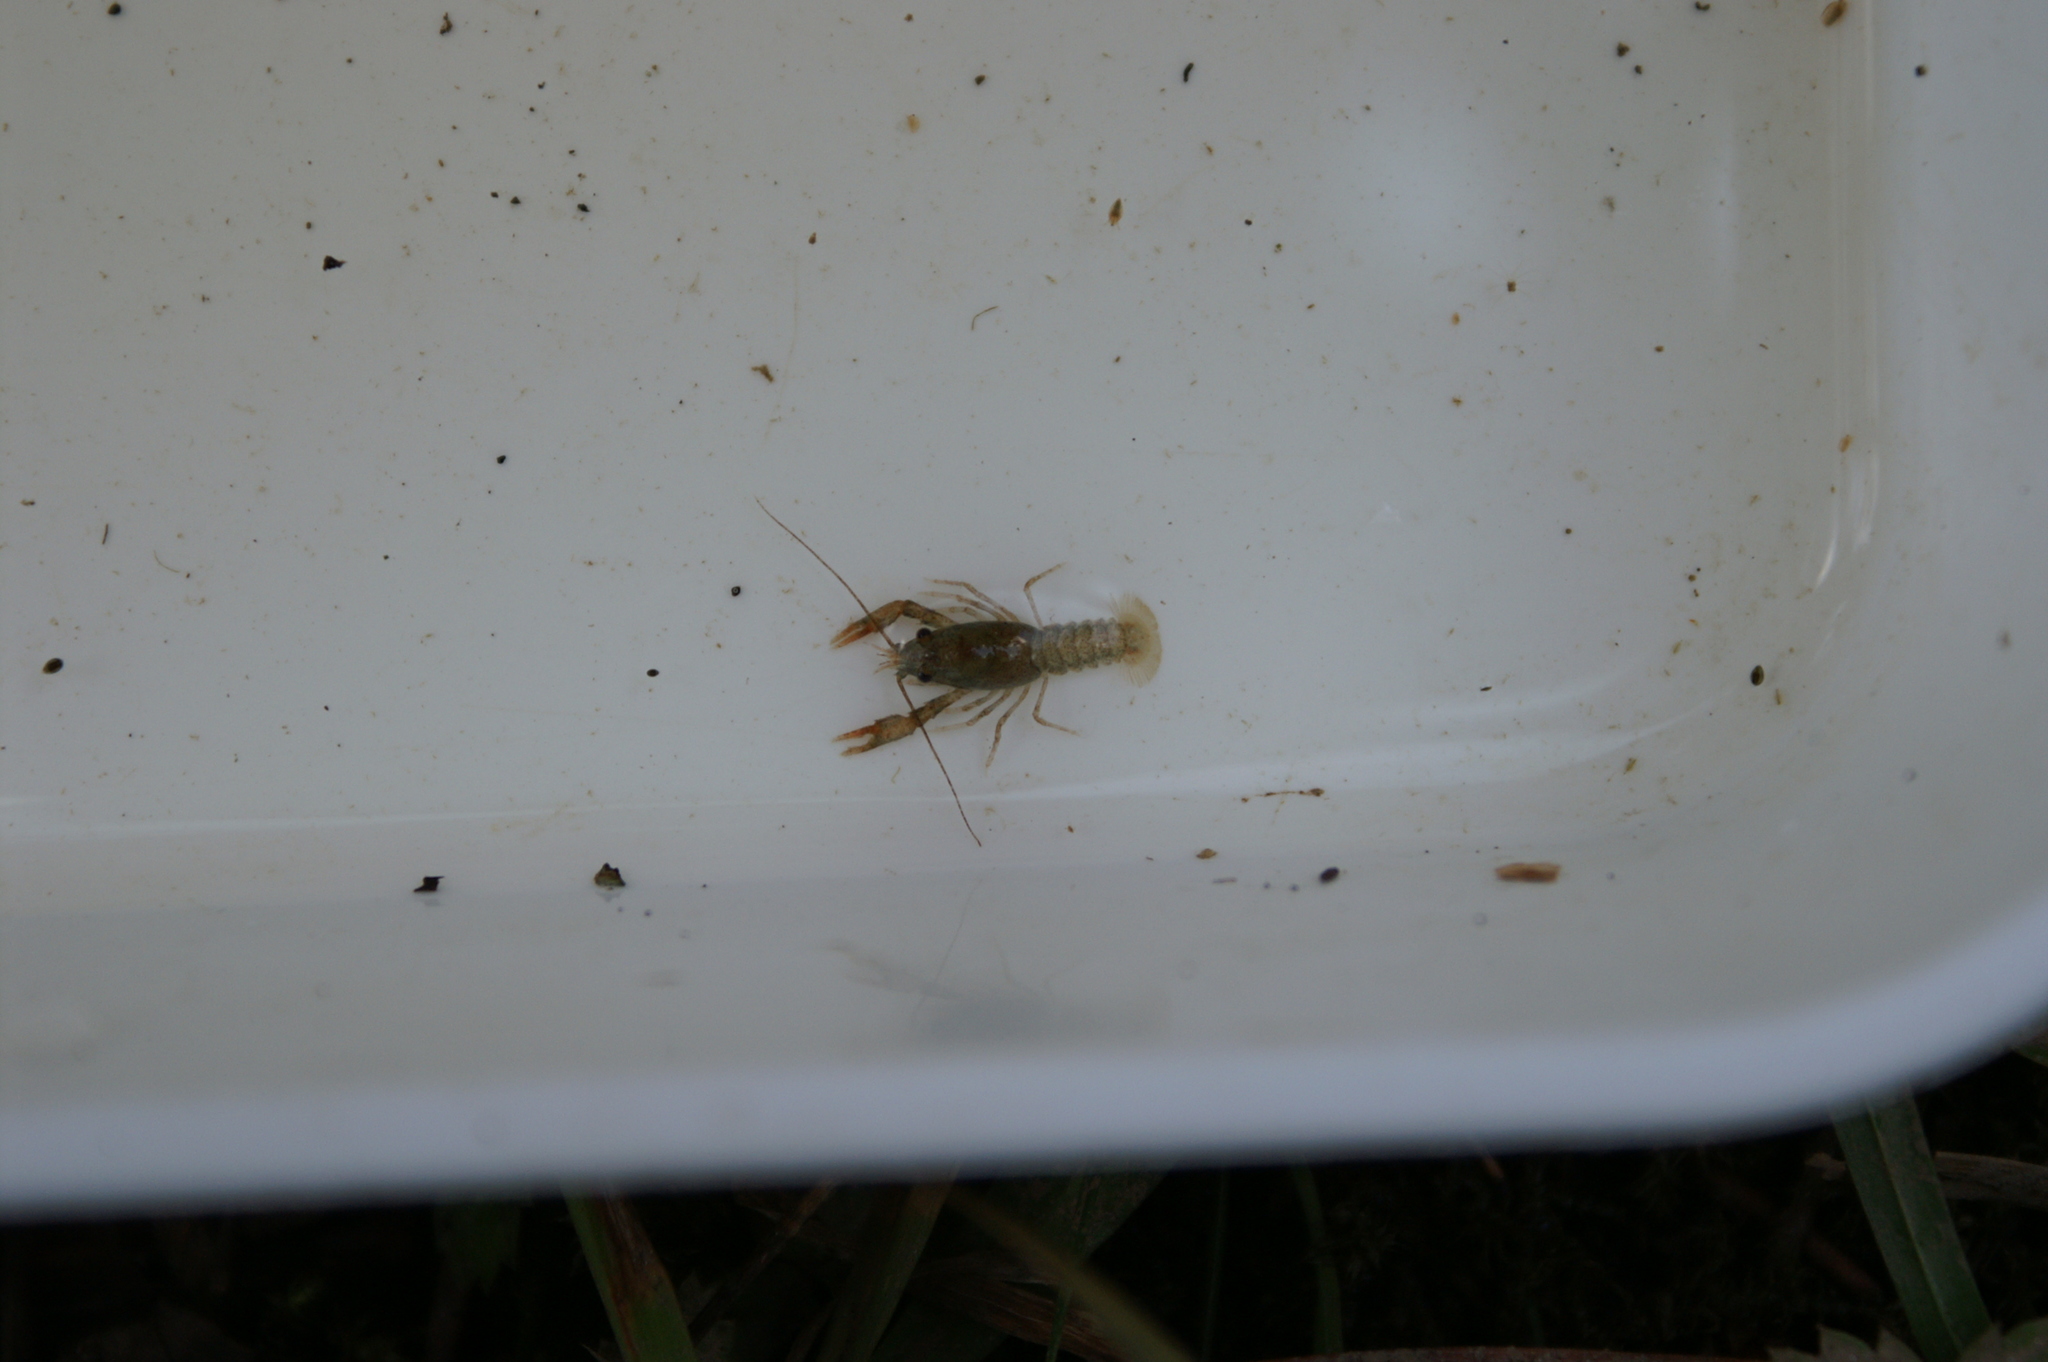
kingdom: Animalia
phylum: Arthropoda
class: Malacostraca
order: Decapoda
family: Astacidae
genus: Astacus
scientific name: Astacus astacus
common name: Noble crayfish
